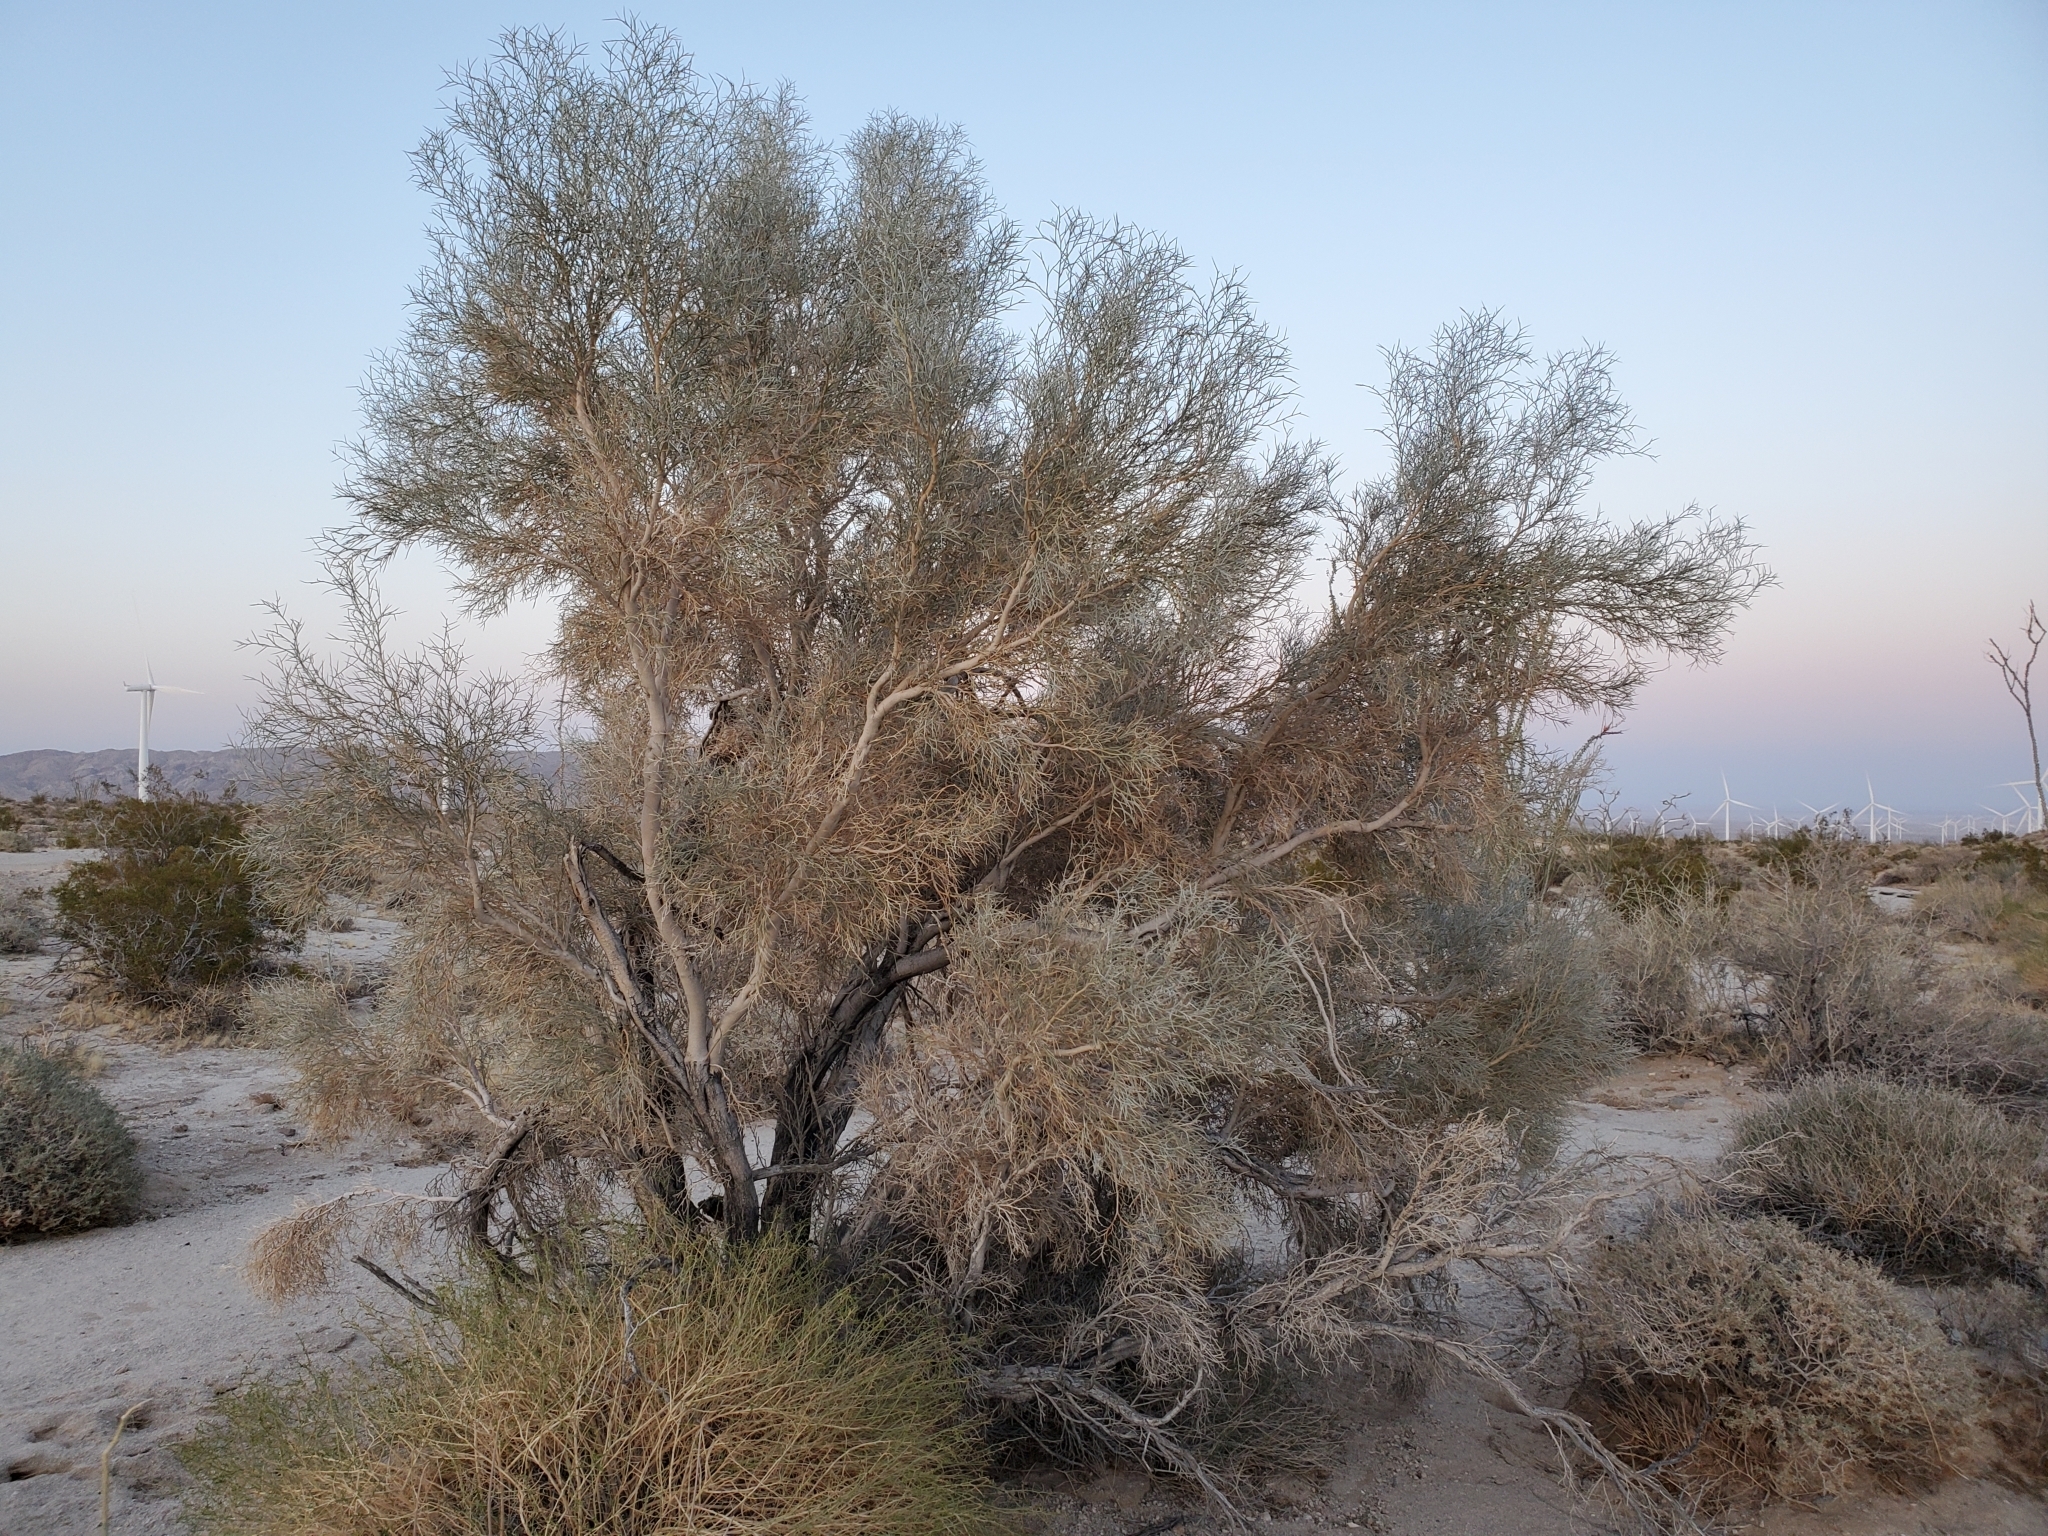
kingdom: Plantae
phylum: Tracheophyta
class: Magnoliopsida
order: Fabales
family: Fabaceae
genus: Psorothamnus
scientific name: Psorothamnus spinosus
